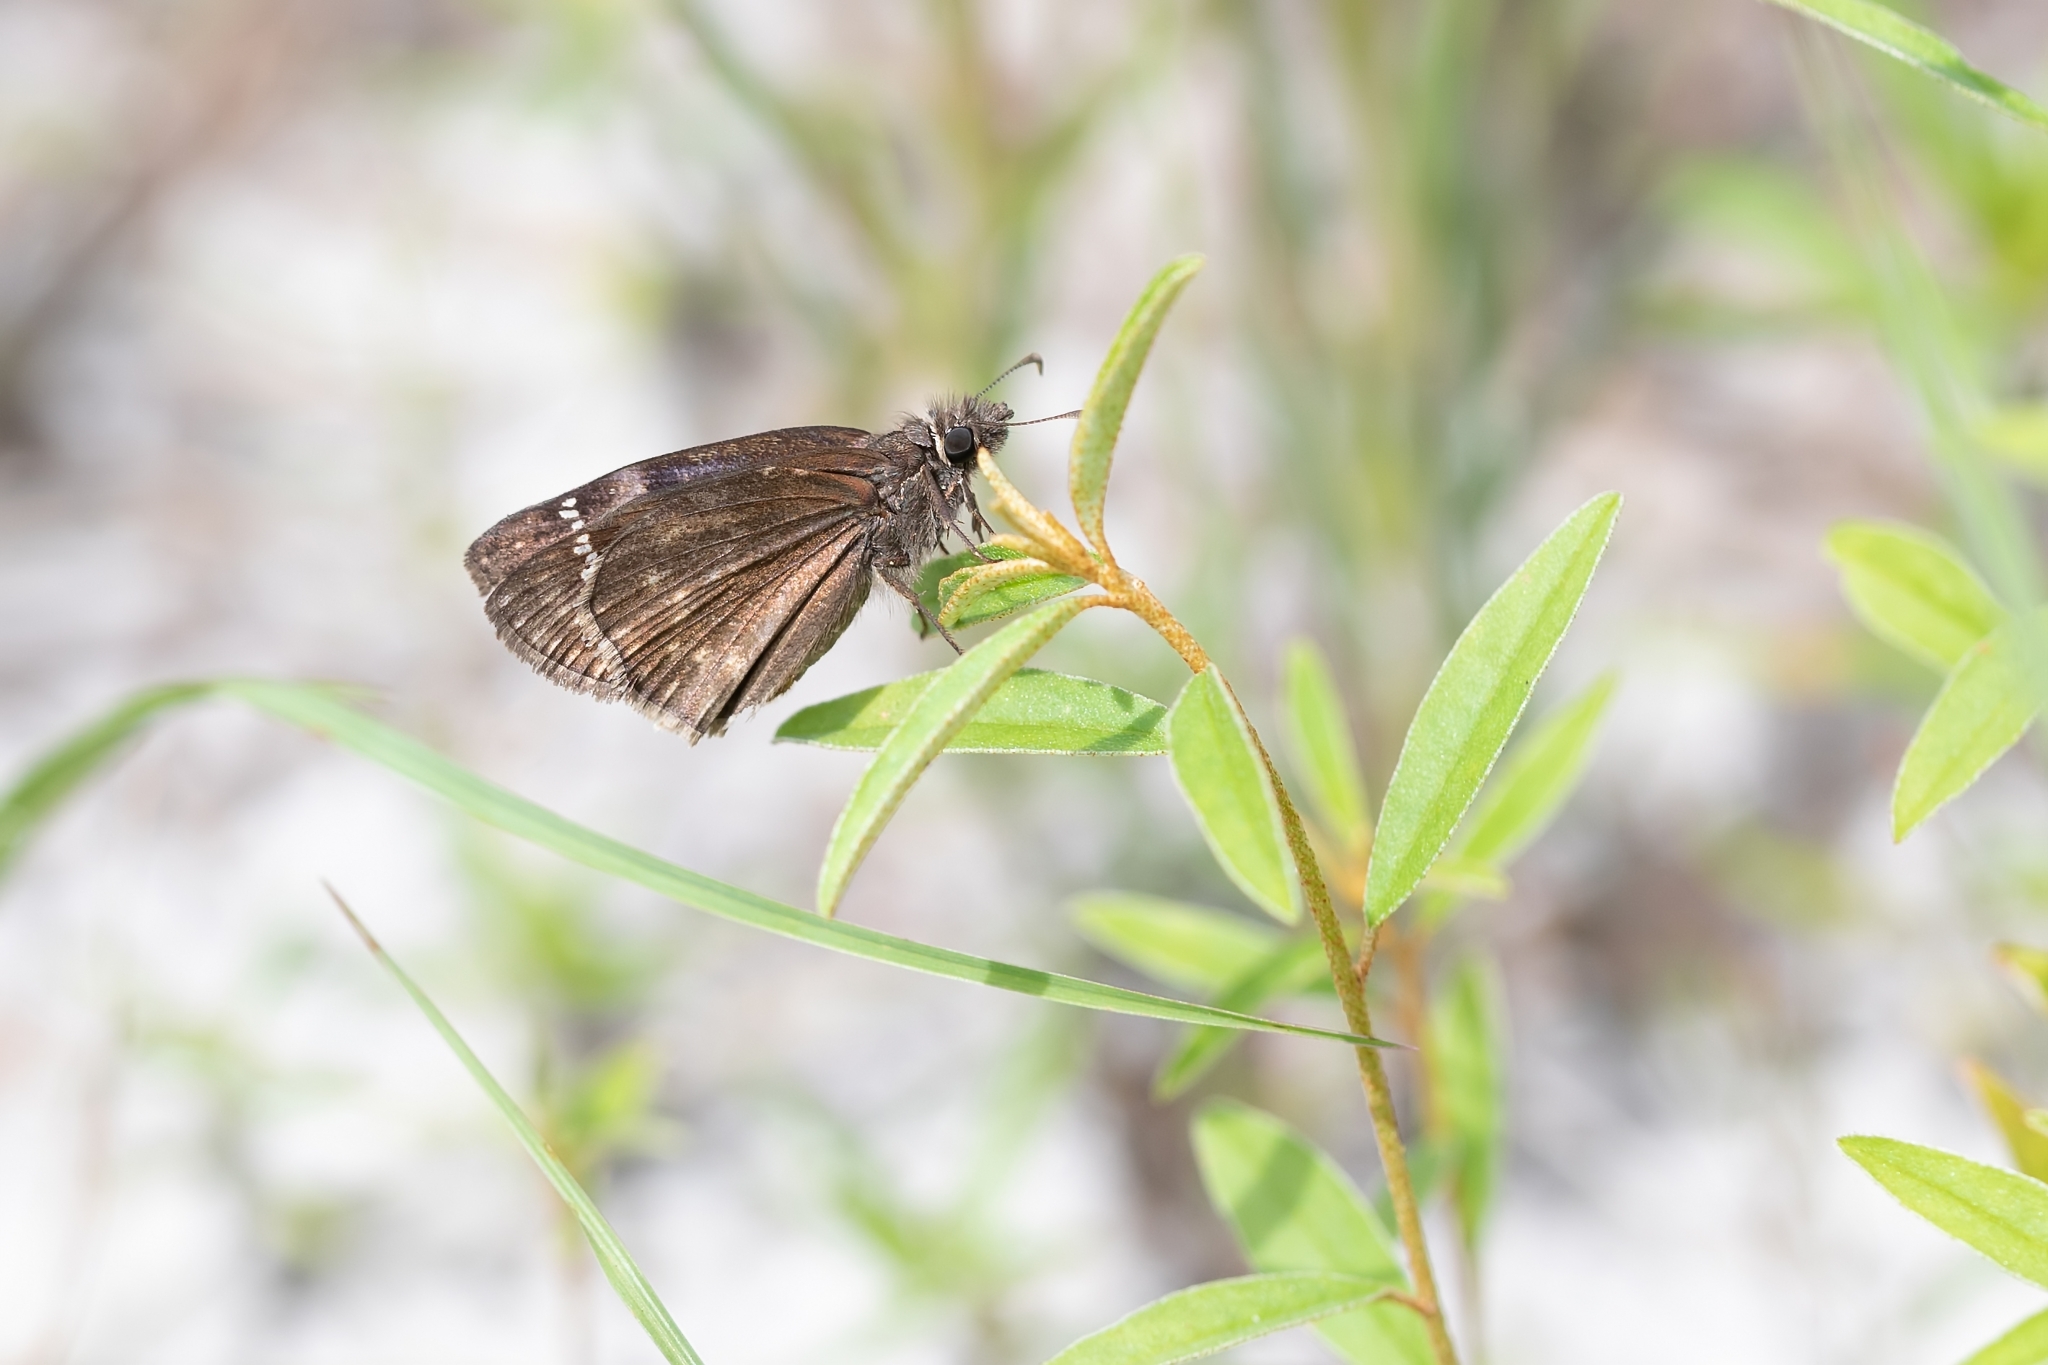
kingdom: Animalia
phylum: Arthropoda
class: Insecta
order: Lepidoptera
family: Hesperiidae
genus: Erynnis
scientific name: Erynnis horatius
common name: Horace's duskywing
